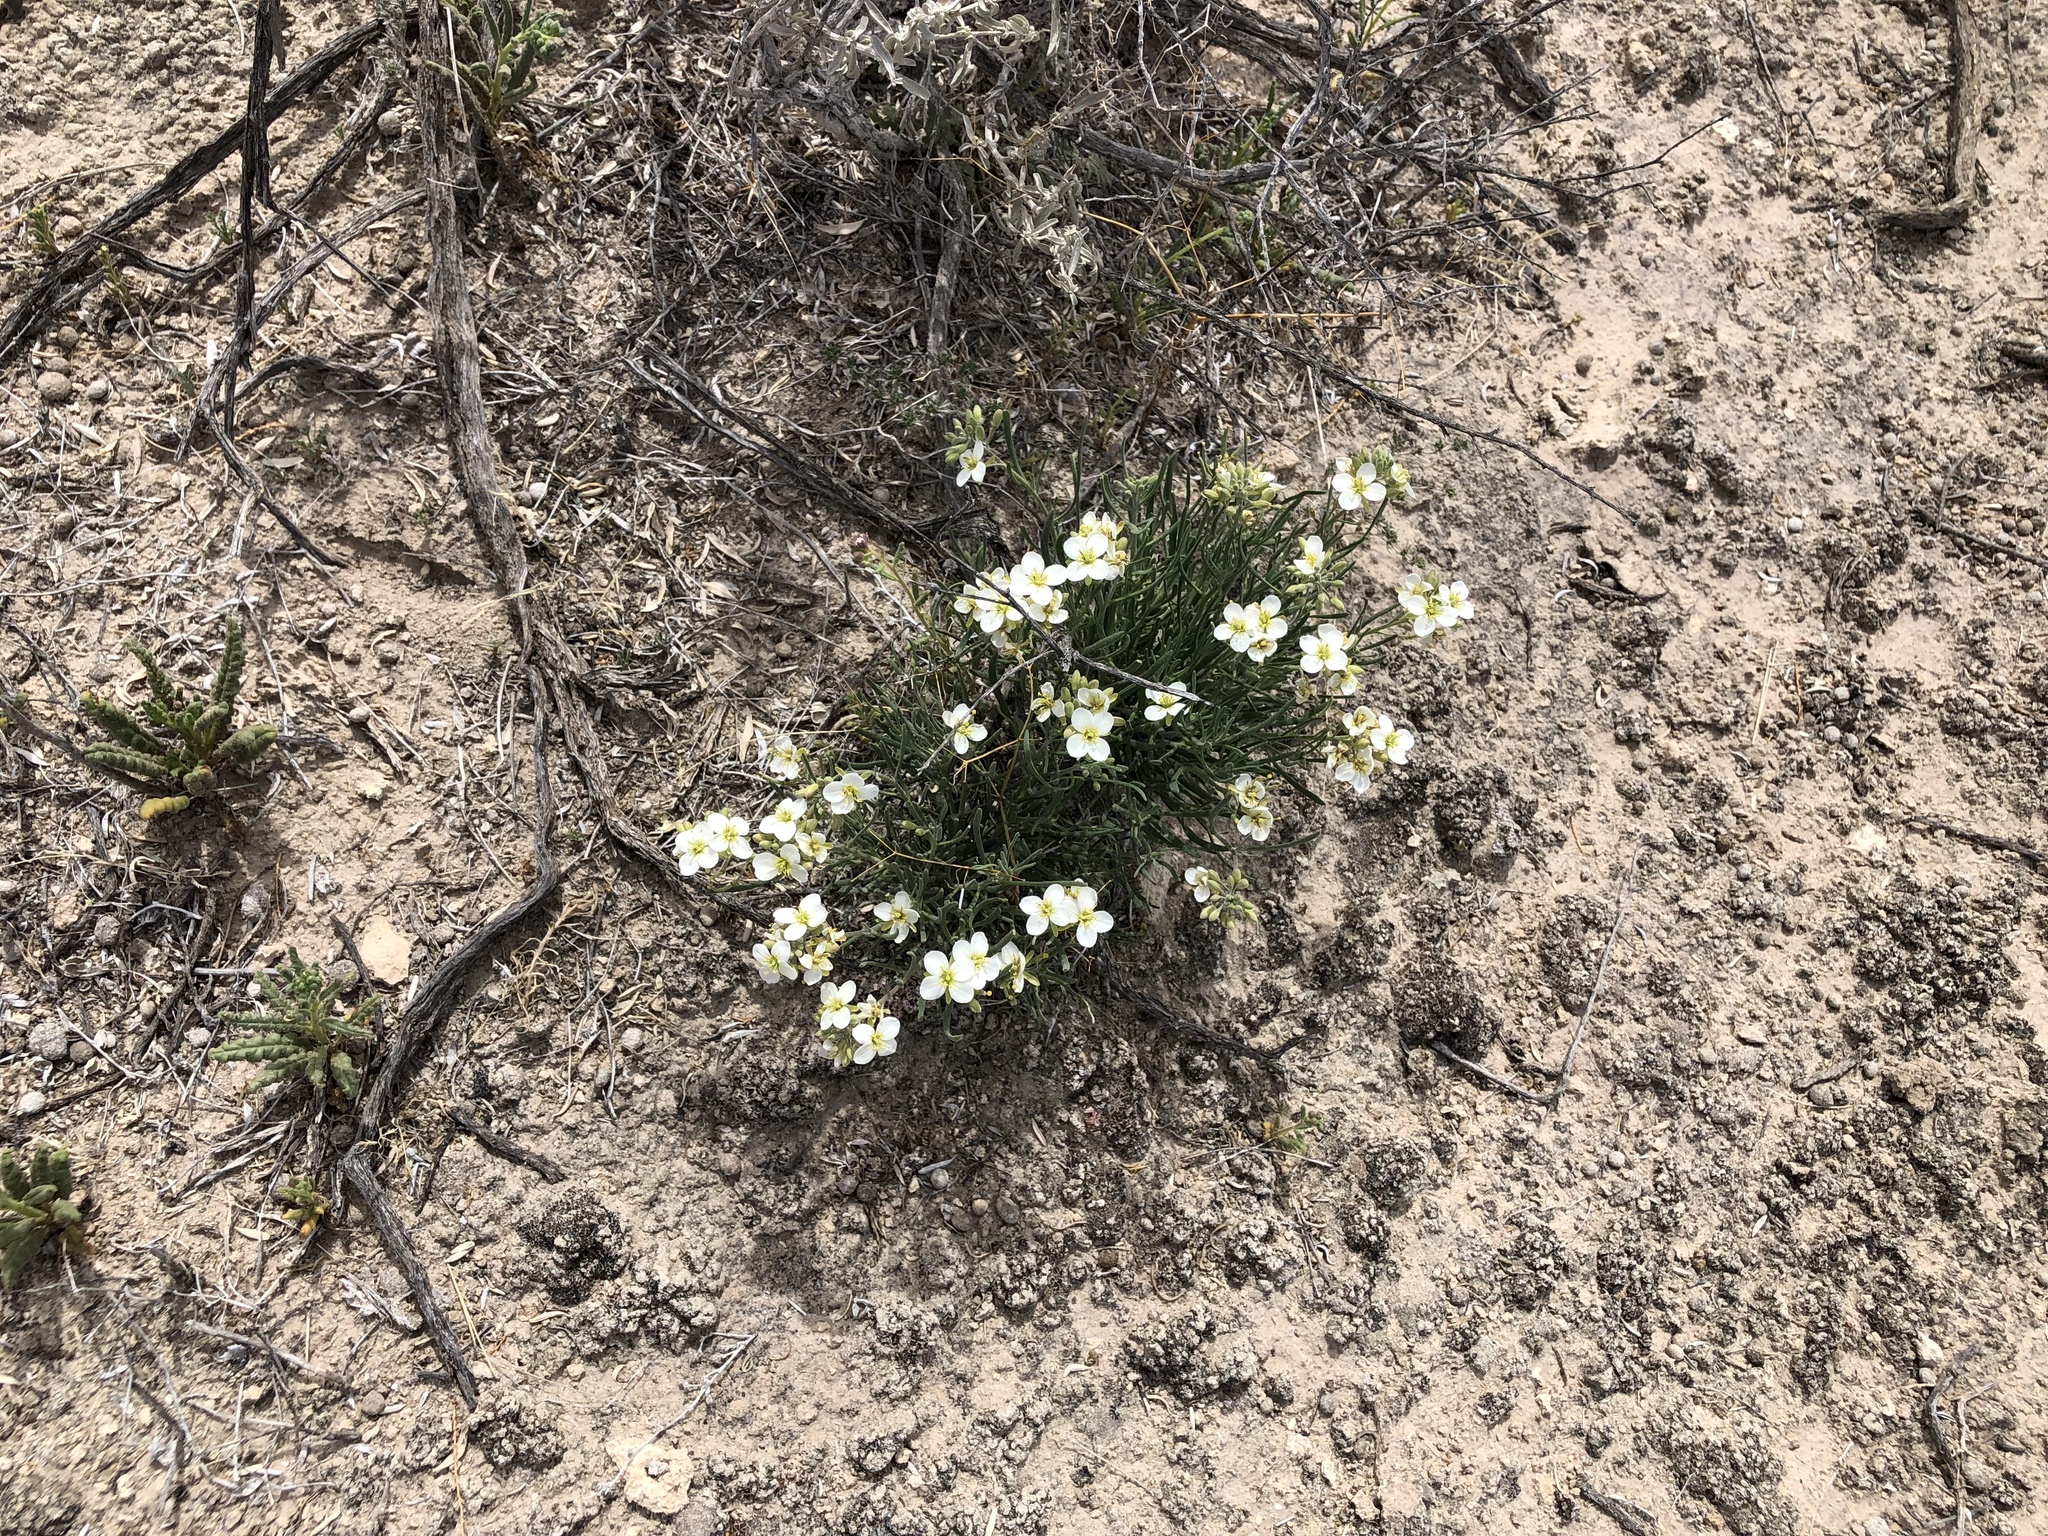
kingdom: Plantae
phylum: Tracheophyta
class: Magnoliopsida
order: Brassicales
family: Brassicaceae
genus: Nerisyrenia
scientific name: Nerisyrenia linearifolia
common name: White sands fan mustard
